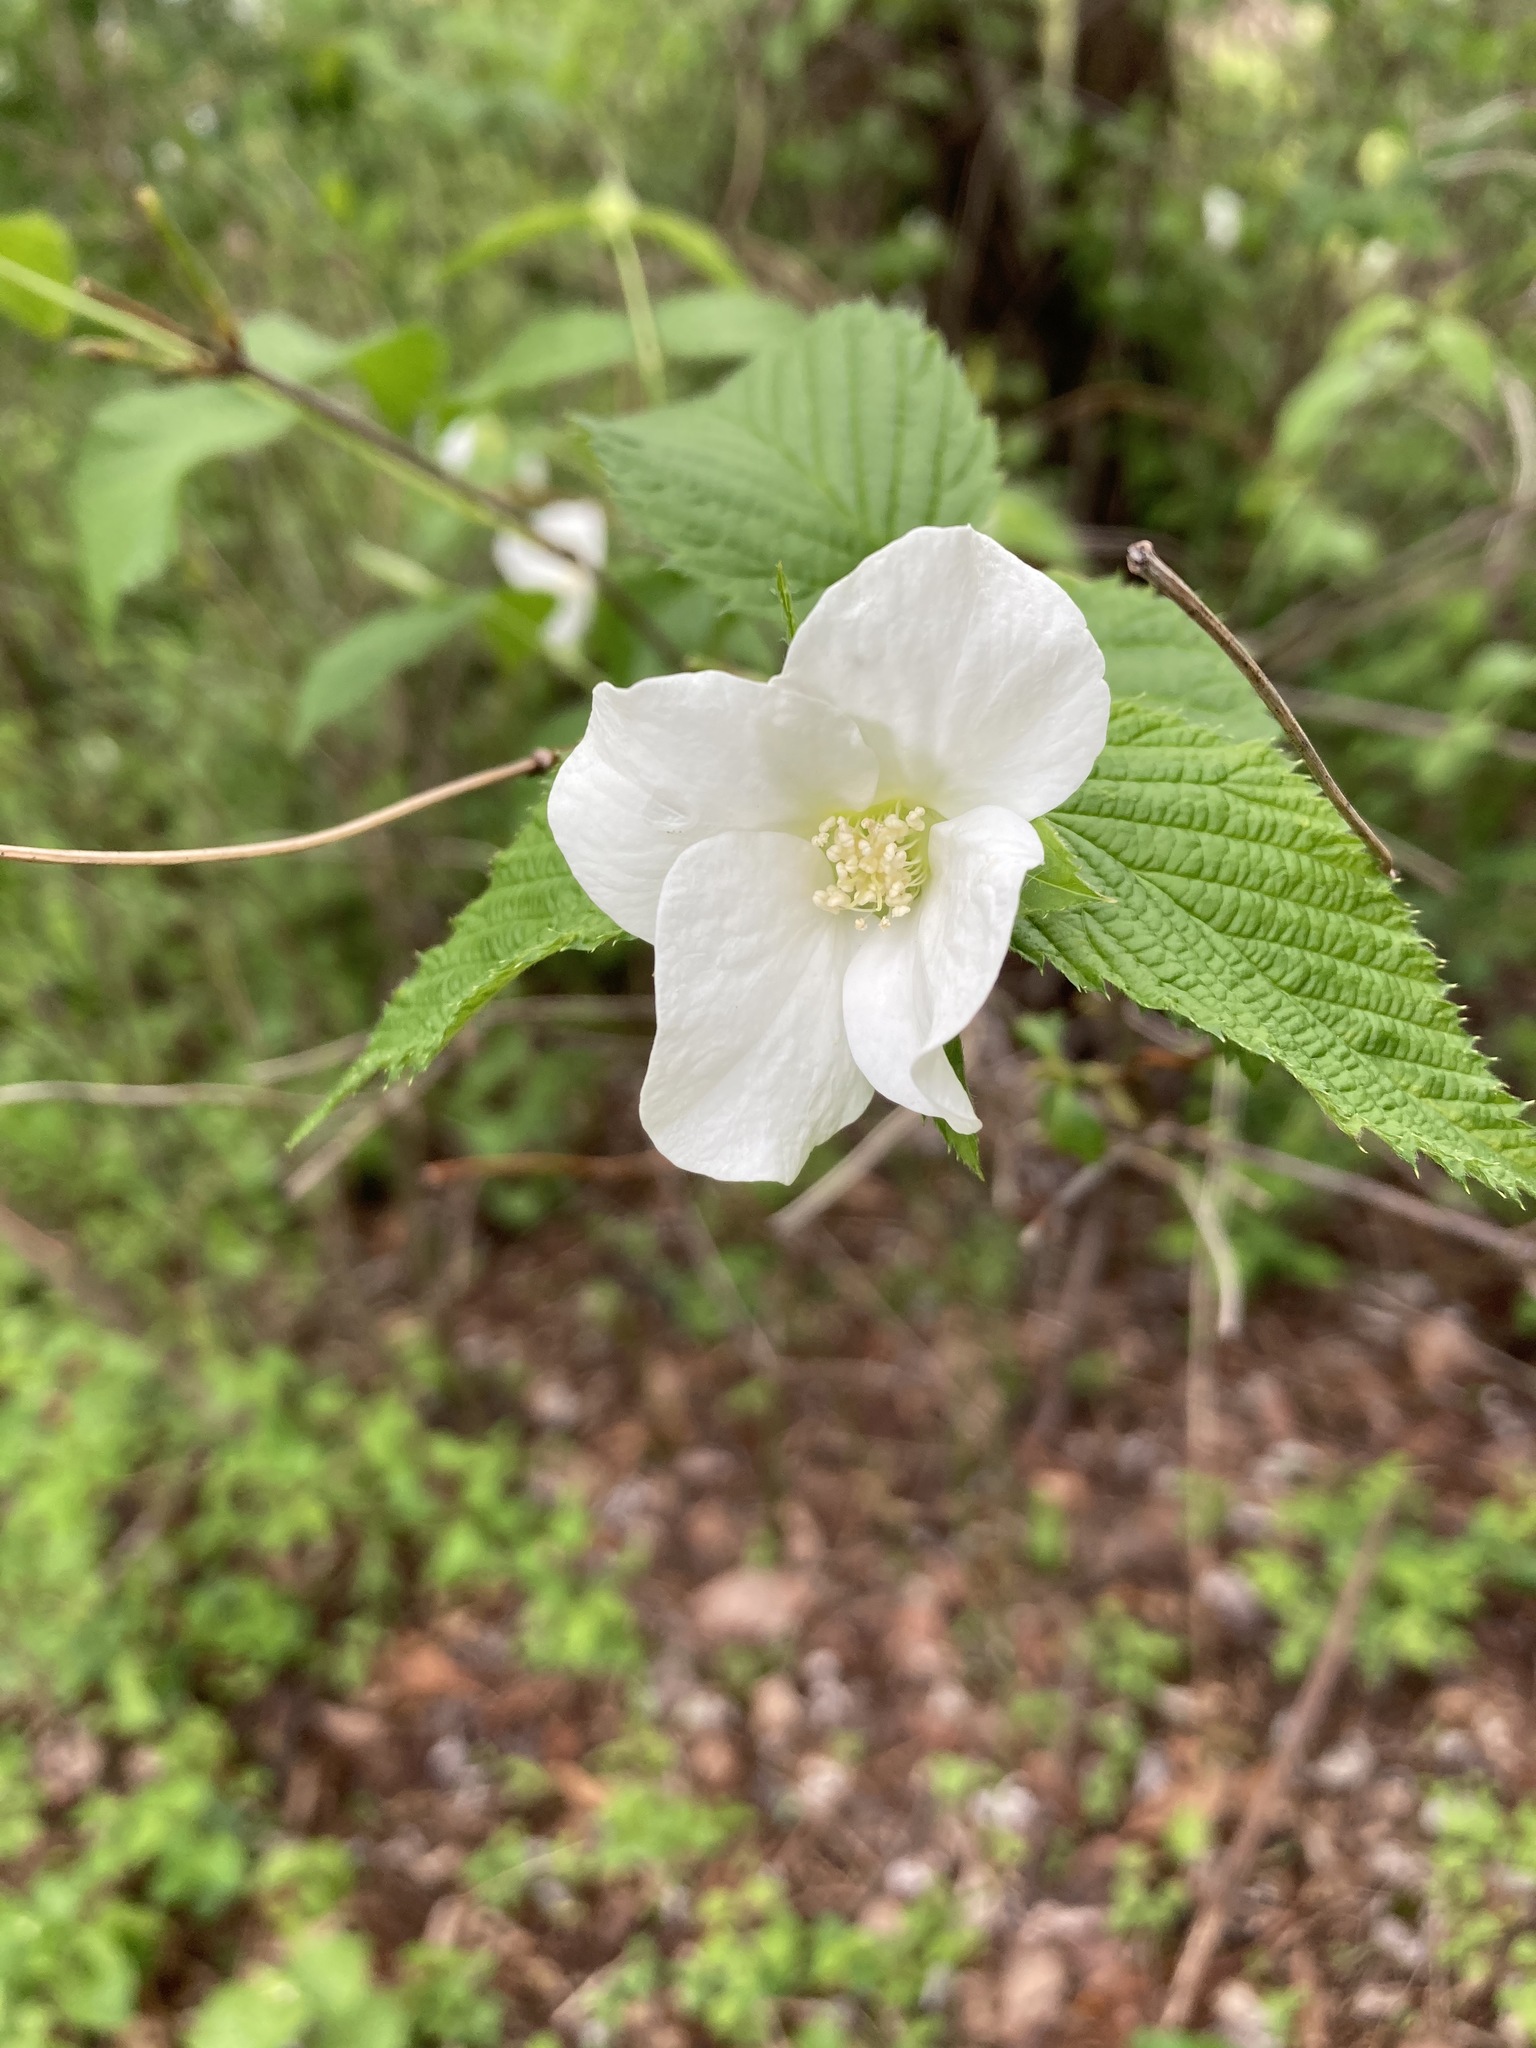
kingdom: Plantae
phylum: Tracheophyta
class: Magnoliopsida
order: Rosales
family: Rosaceae
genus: Rhodotypos
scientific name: Rhodotypos scandens
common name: Jetbead
